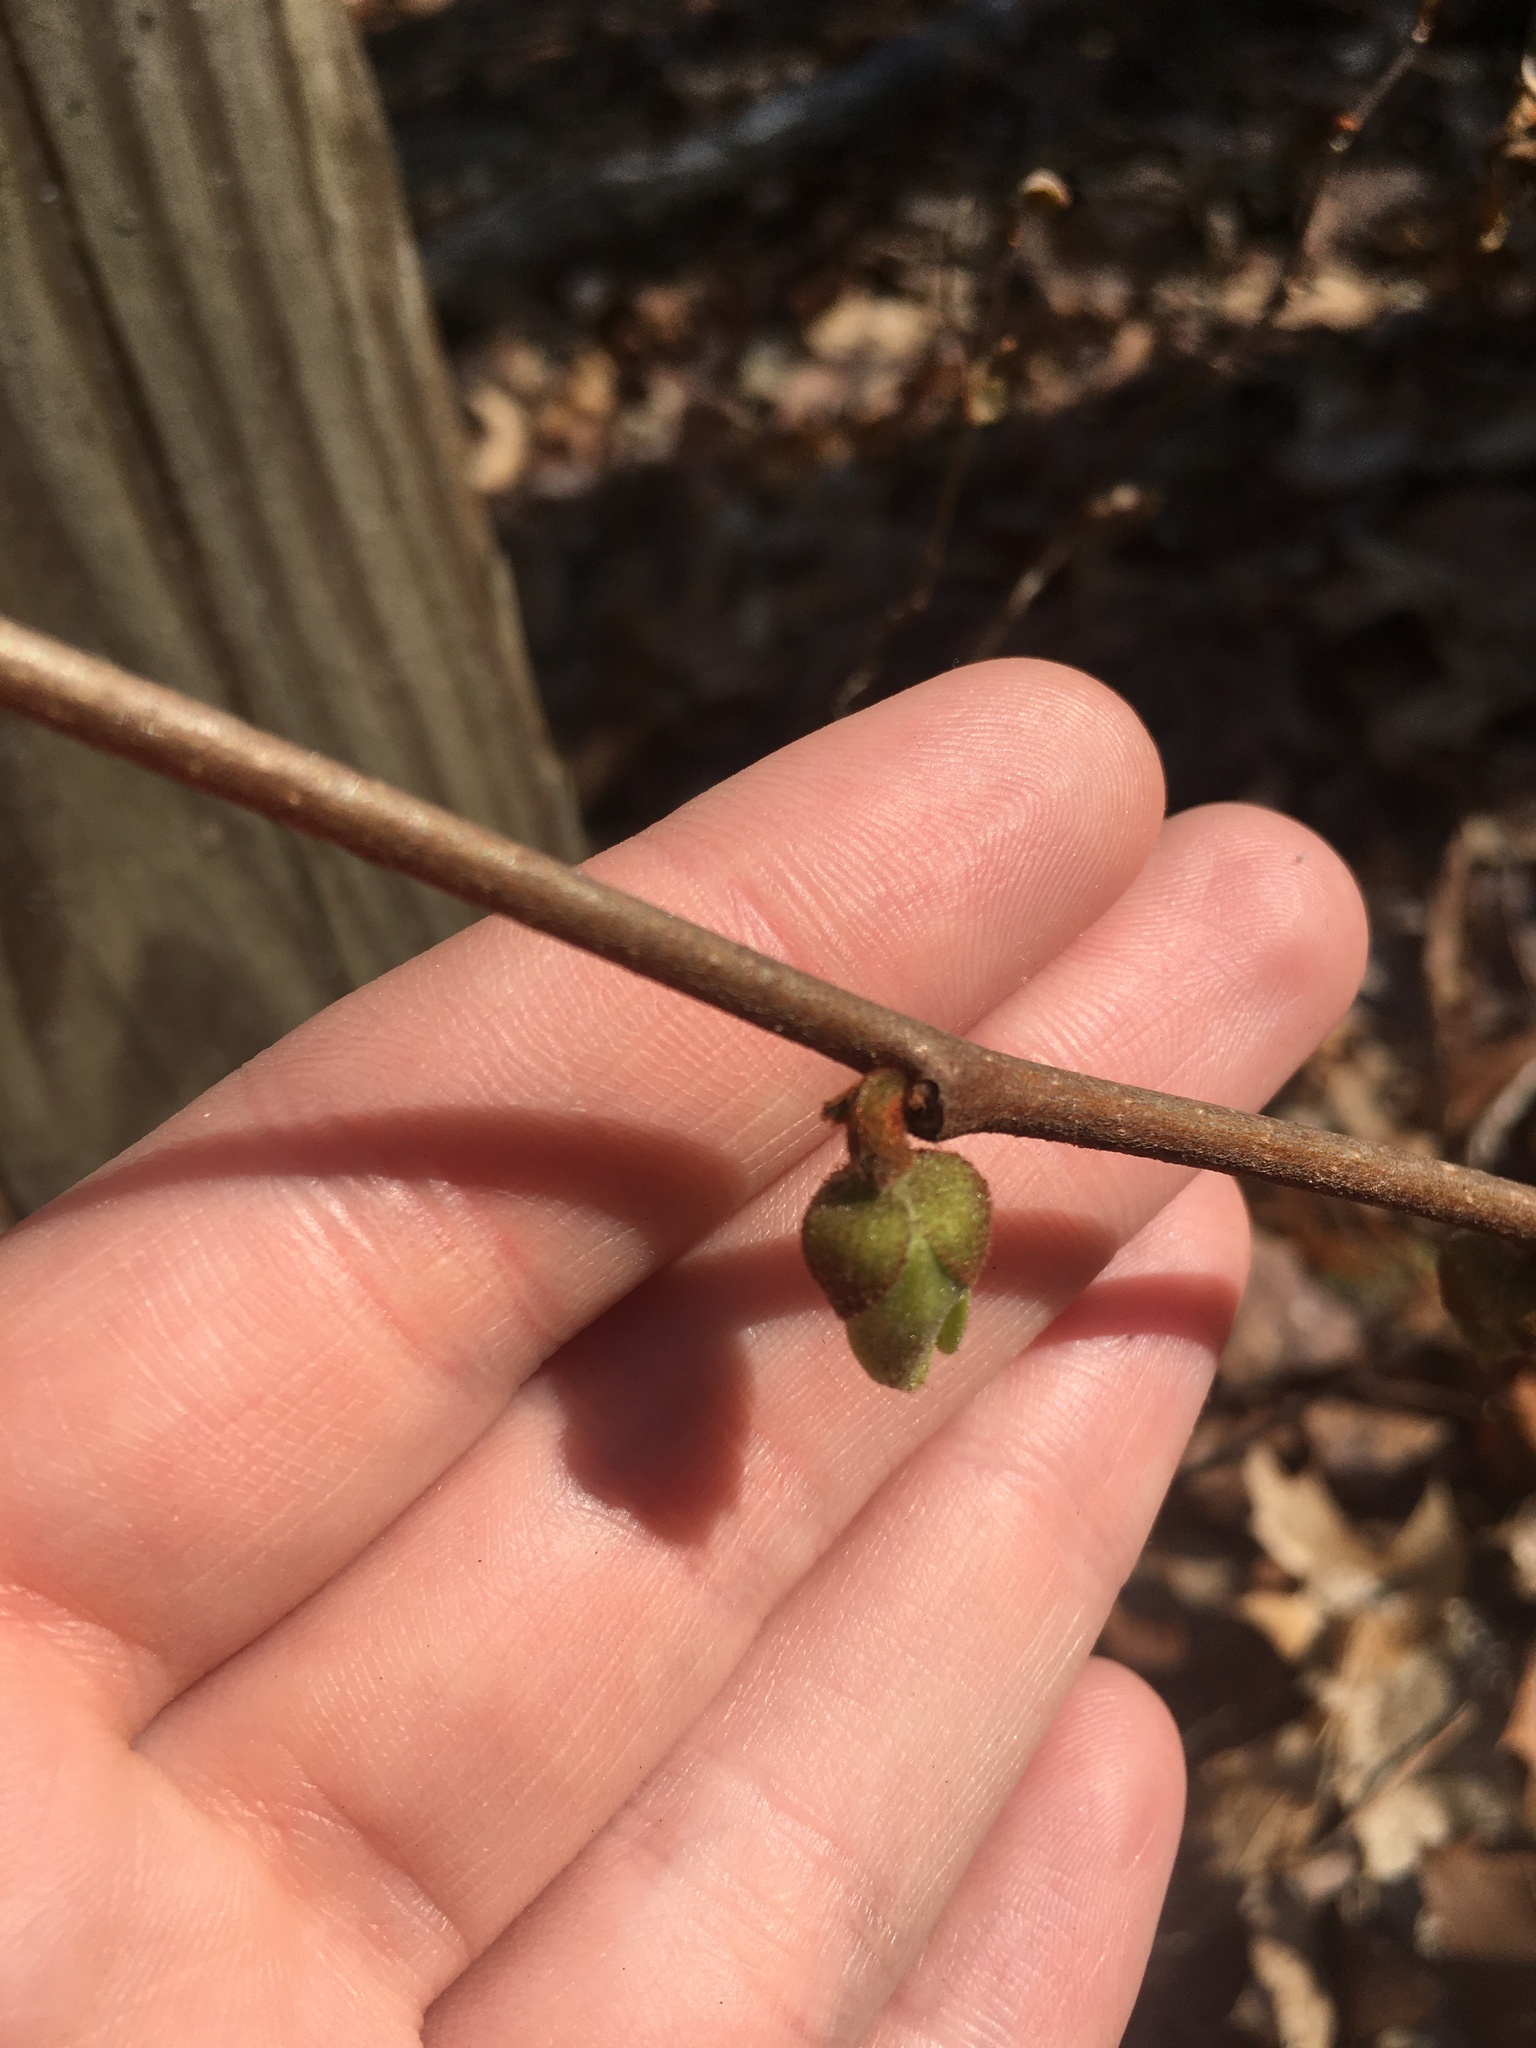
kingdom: Plantae
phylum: Tracheophyta
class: Magnoliopsida
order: Magnoliales
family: Annonaceae
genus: Asimina
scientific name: Asimina parviflora
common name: Dwarf pawpaw
